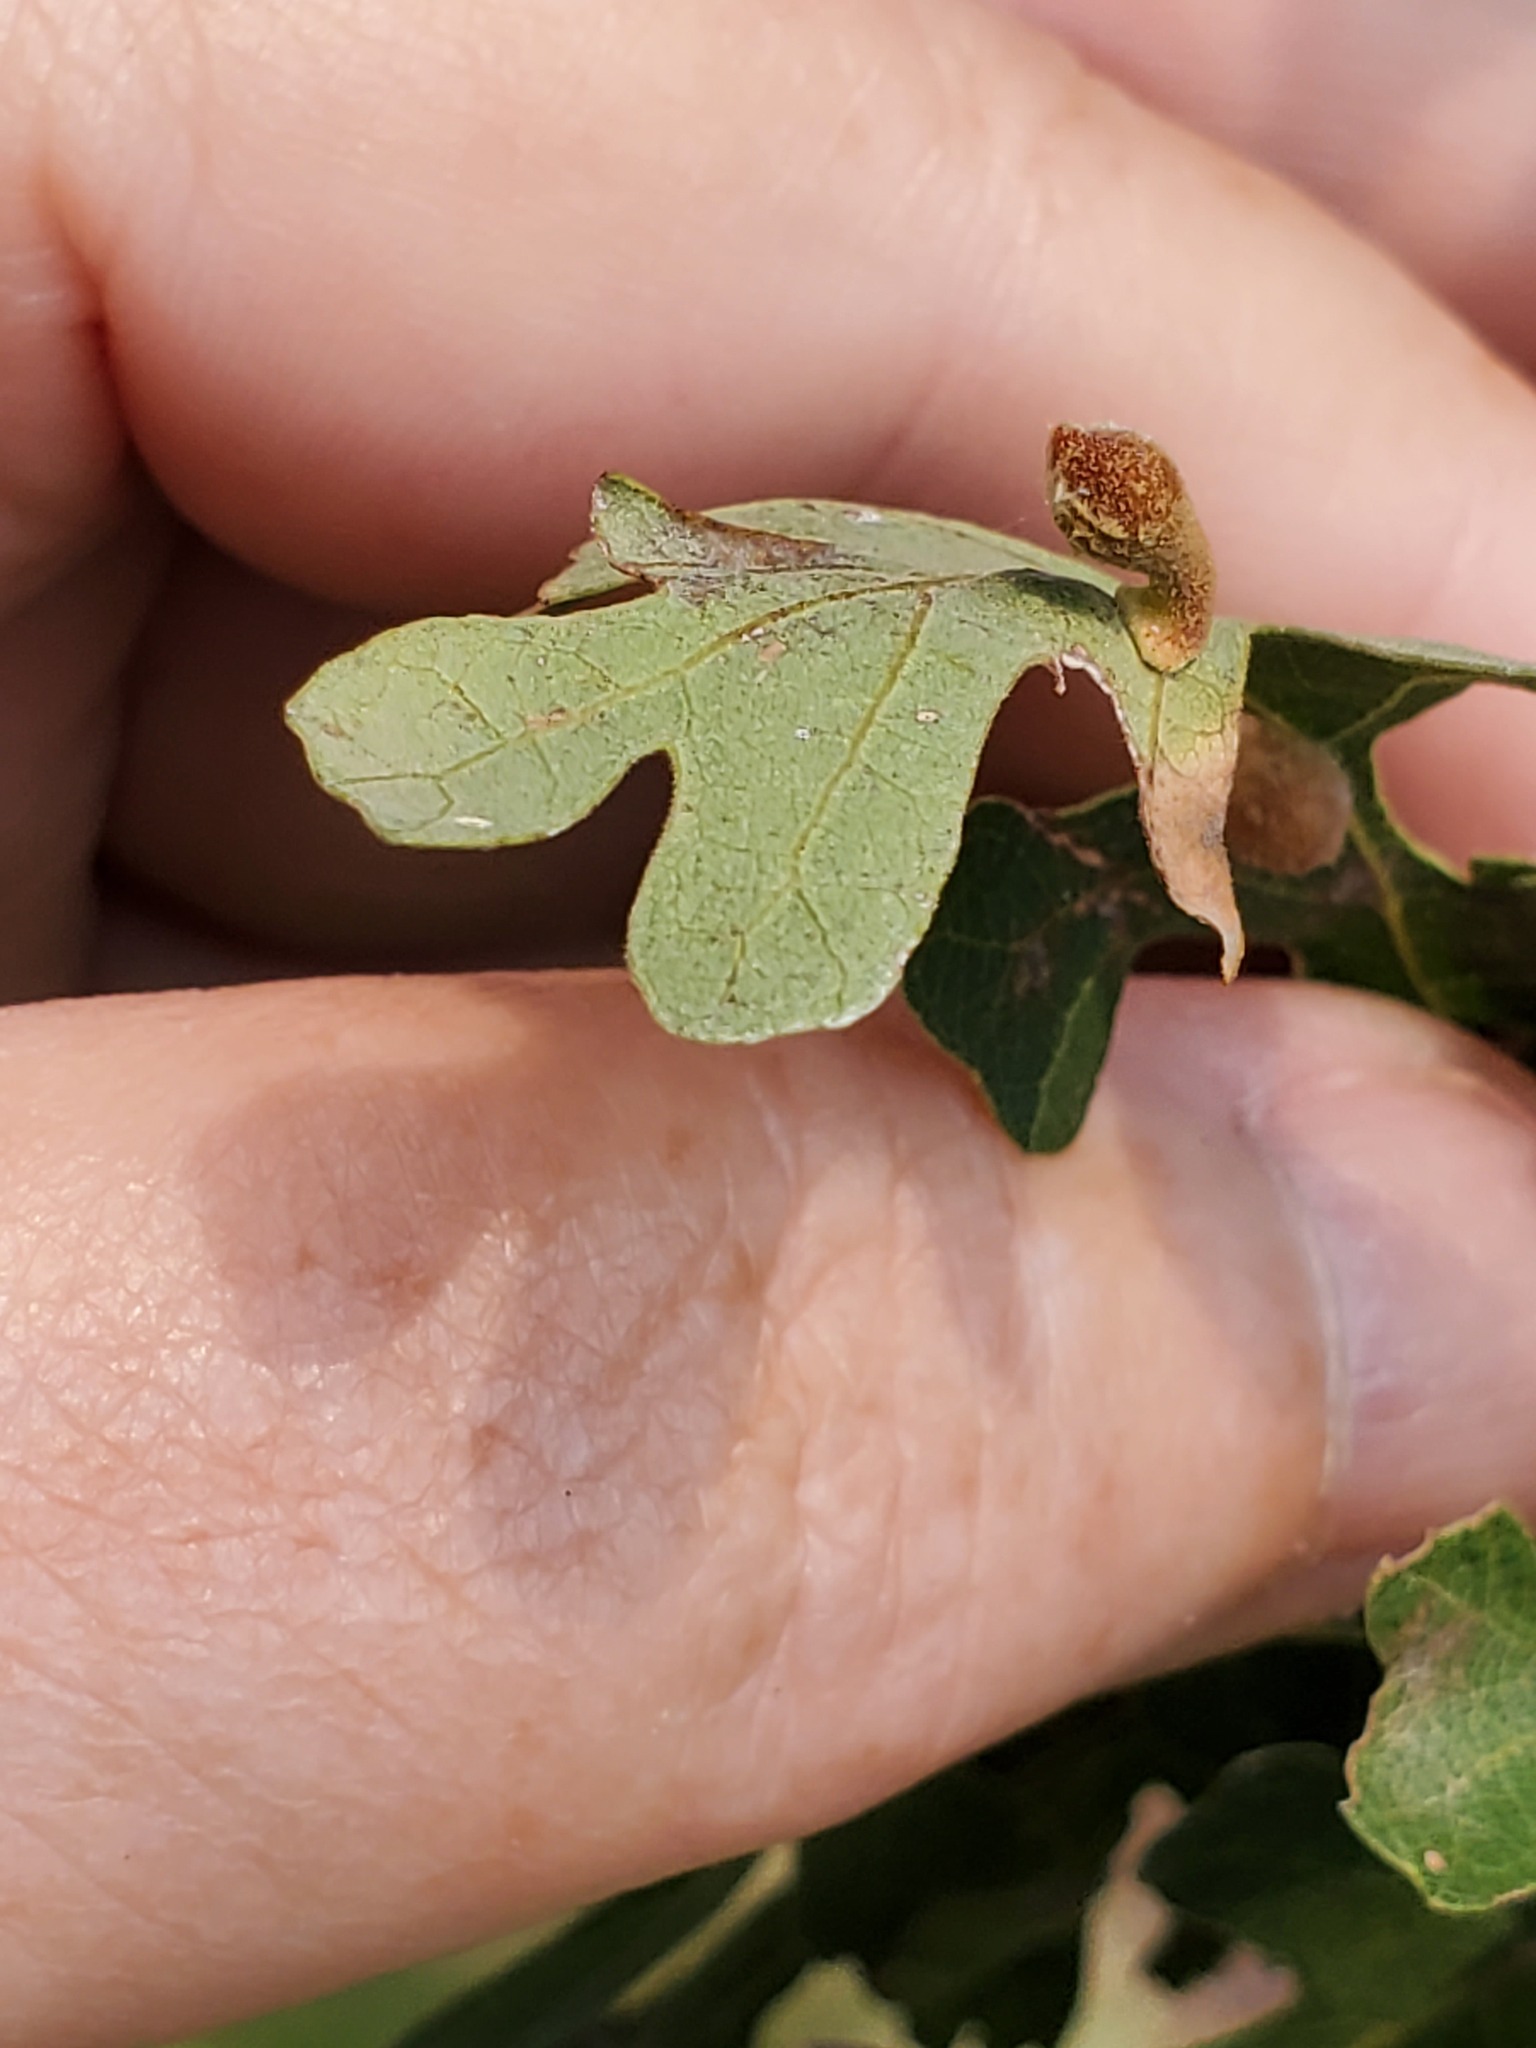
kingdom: Animalia
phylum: Arthropoda
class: Insecta
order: Hymenoptera
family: Cynipidae
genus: Atrusca
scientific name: Atrusca
